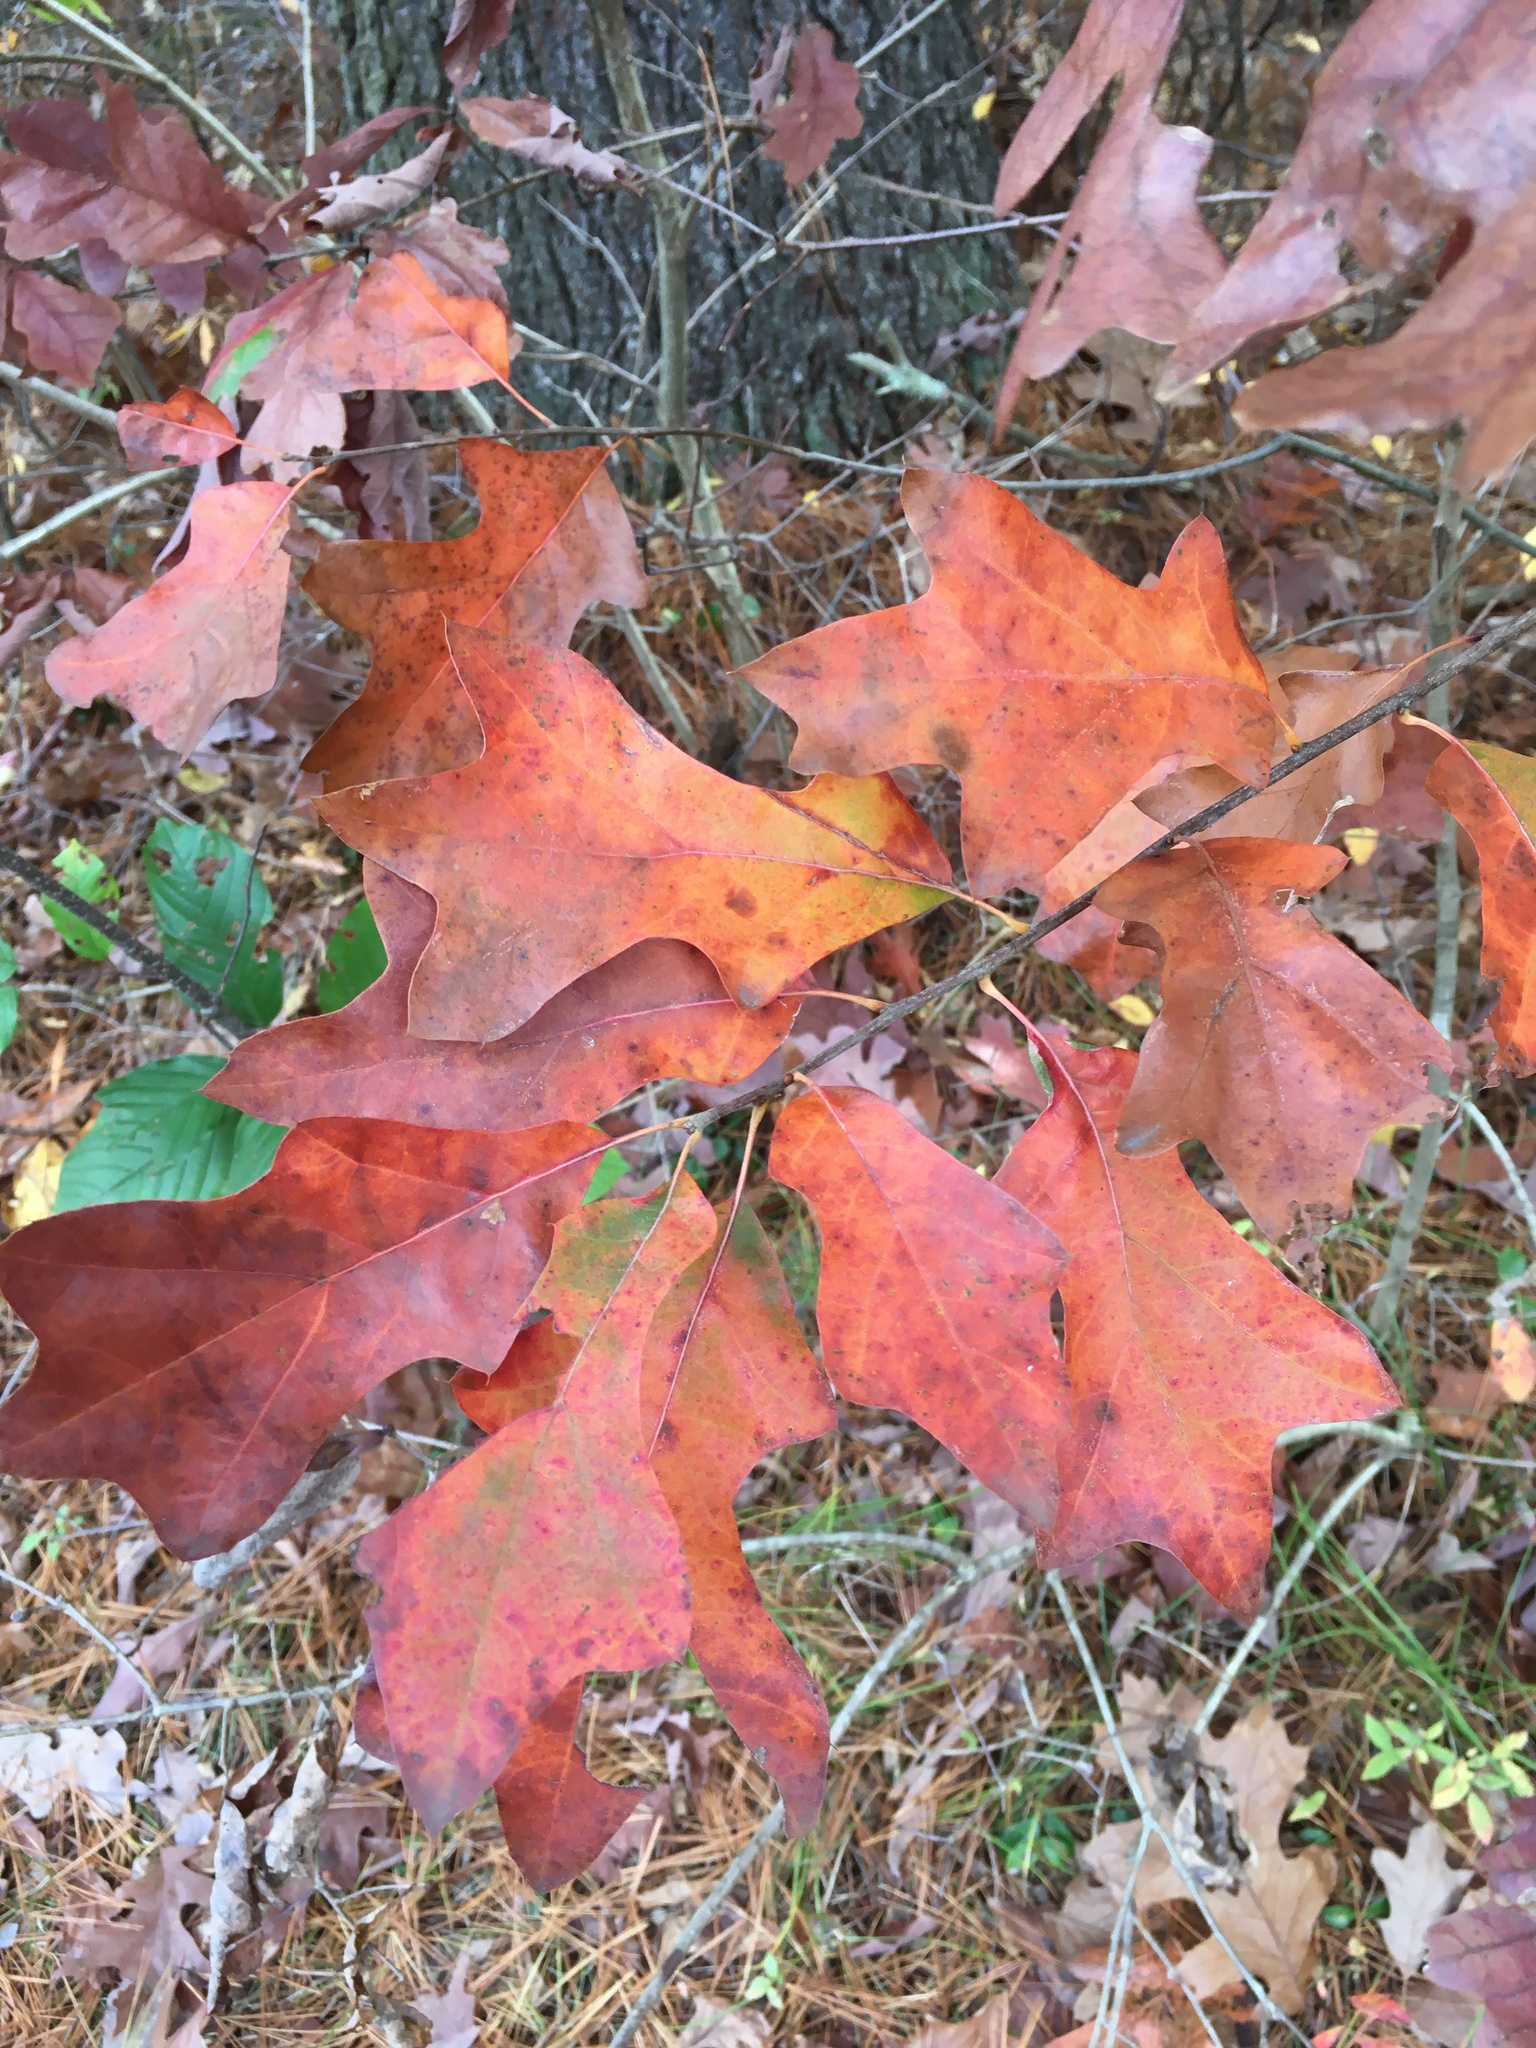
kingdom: Plantae
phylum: Tracheophyta
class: Magnoliopsida
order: Fagales
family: Fagaceae
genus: Quercus
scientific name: Quercus ilicifolia
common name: Bear oak
